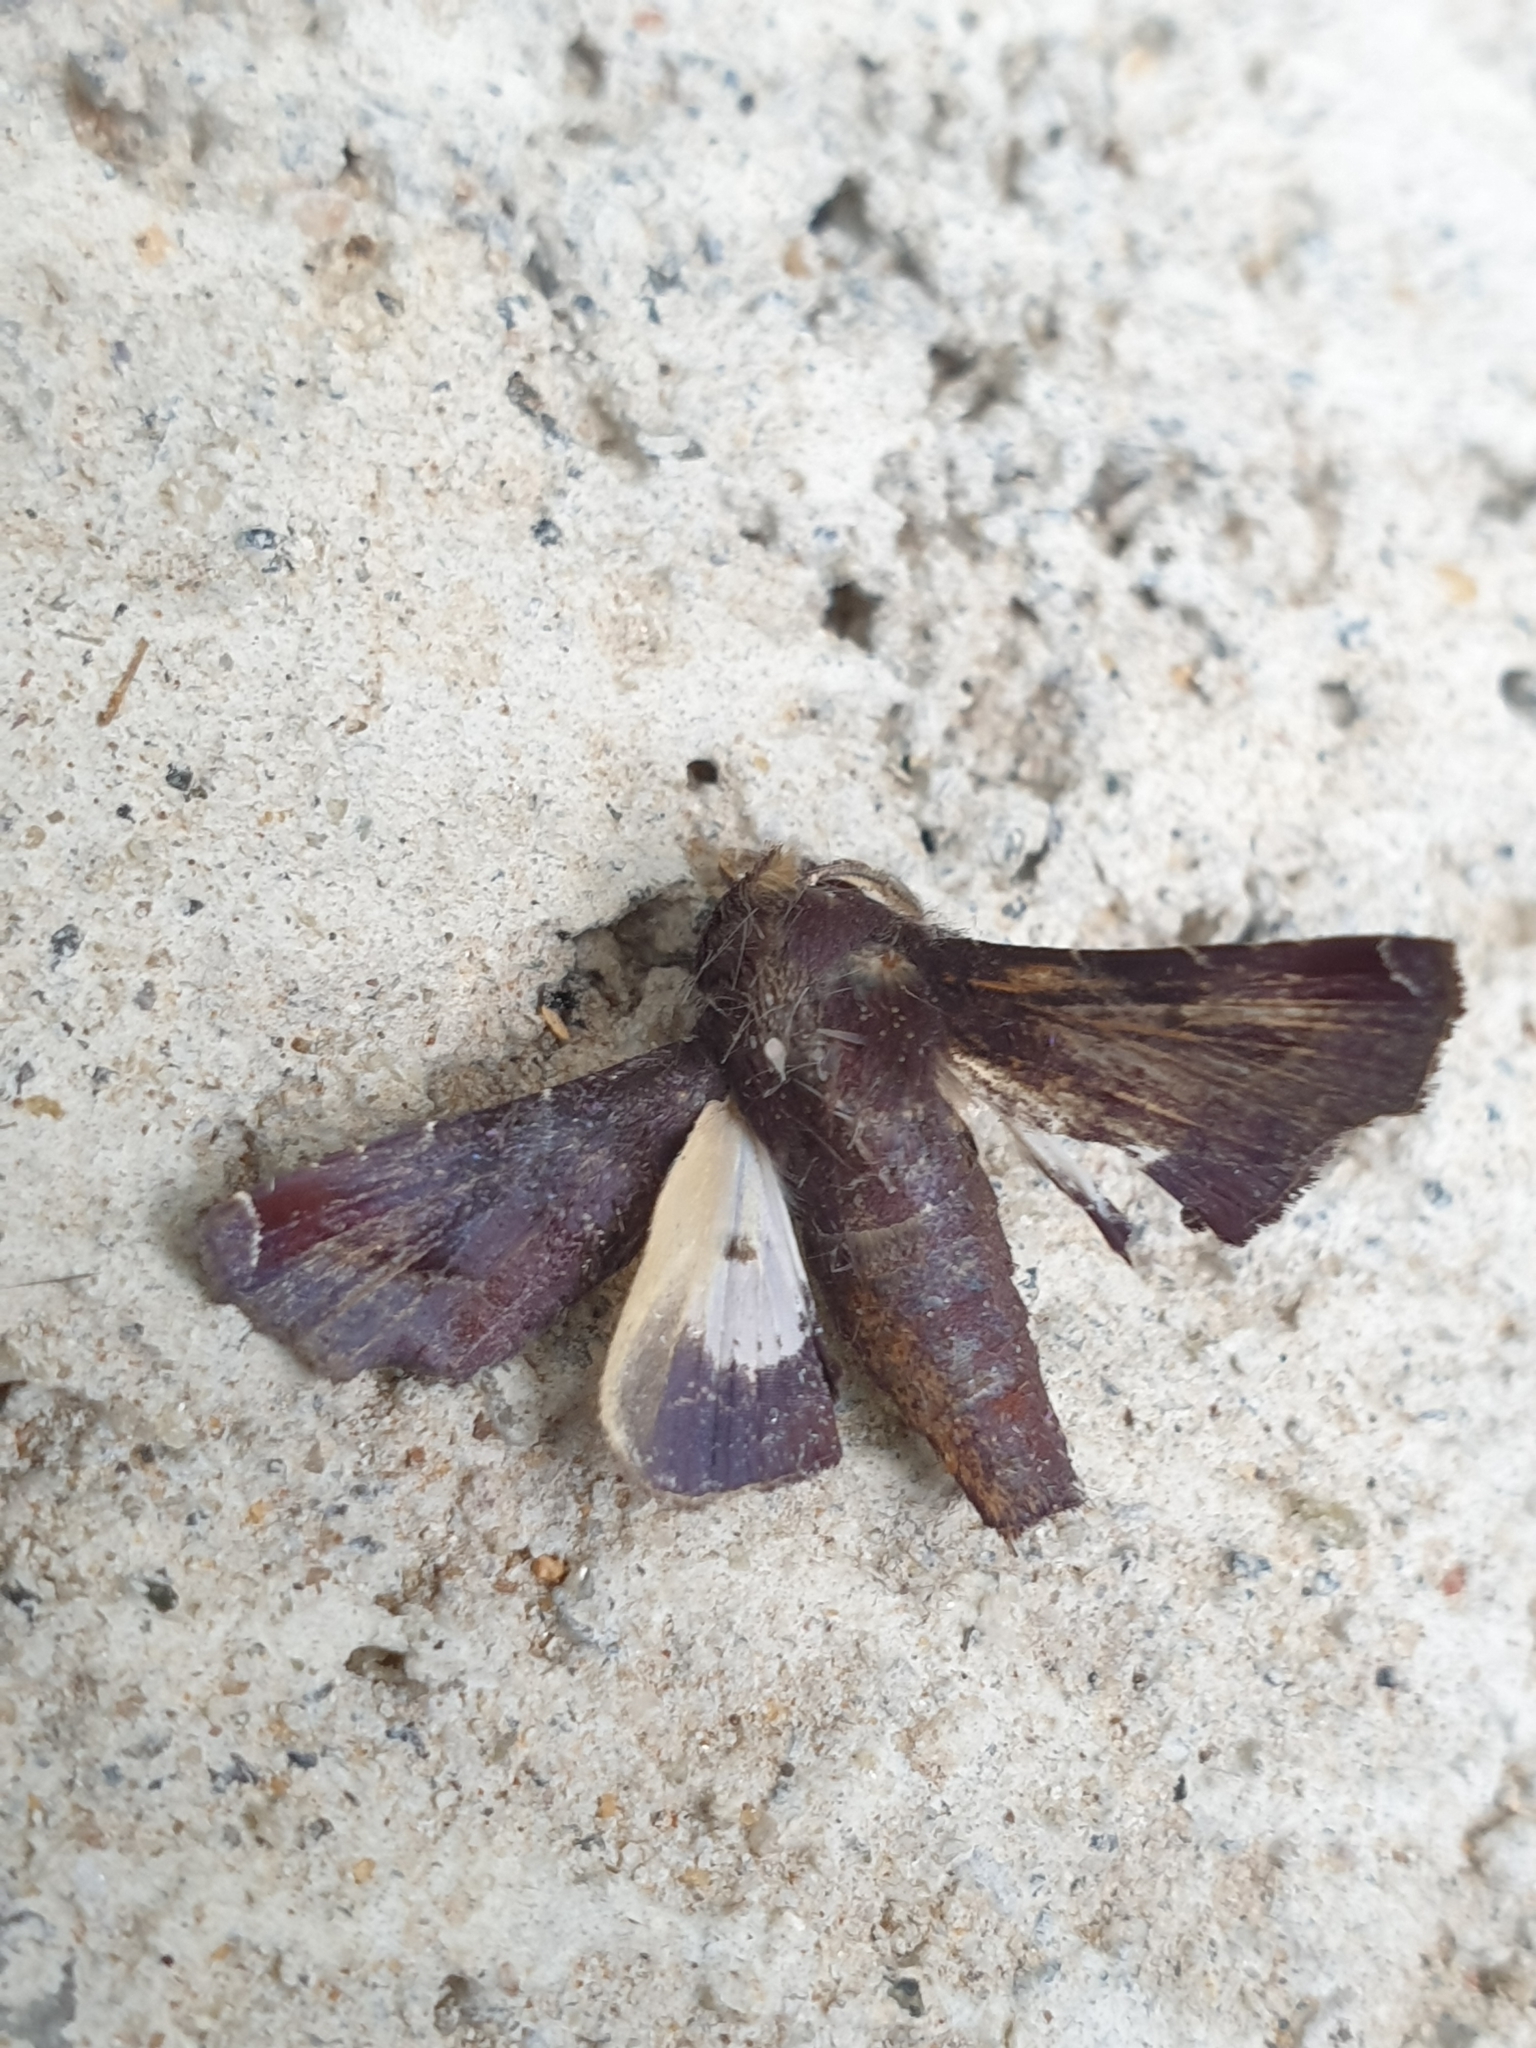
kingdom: Animalia
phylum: Arthropoda
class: Insecta
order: Lepidoptera
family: Euteliidae
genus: Penicillaria
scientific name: Penicillaria jocosatrix
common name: Mango shoot borer
